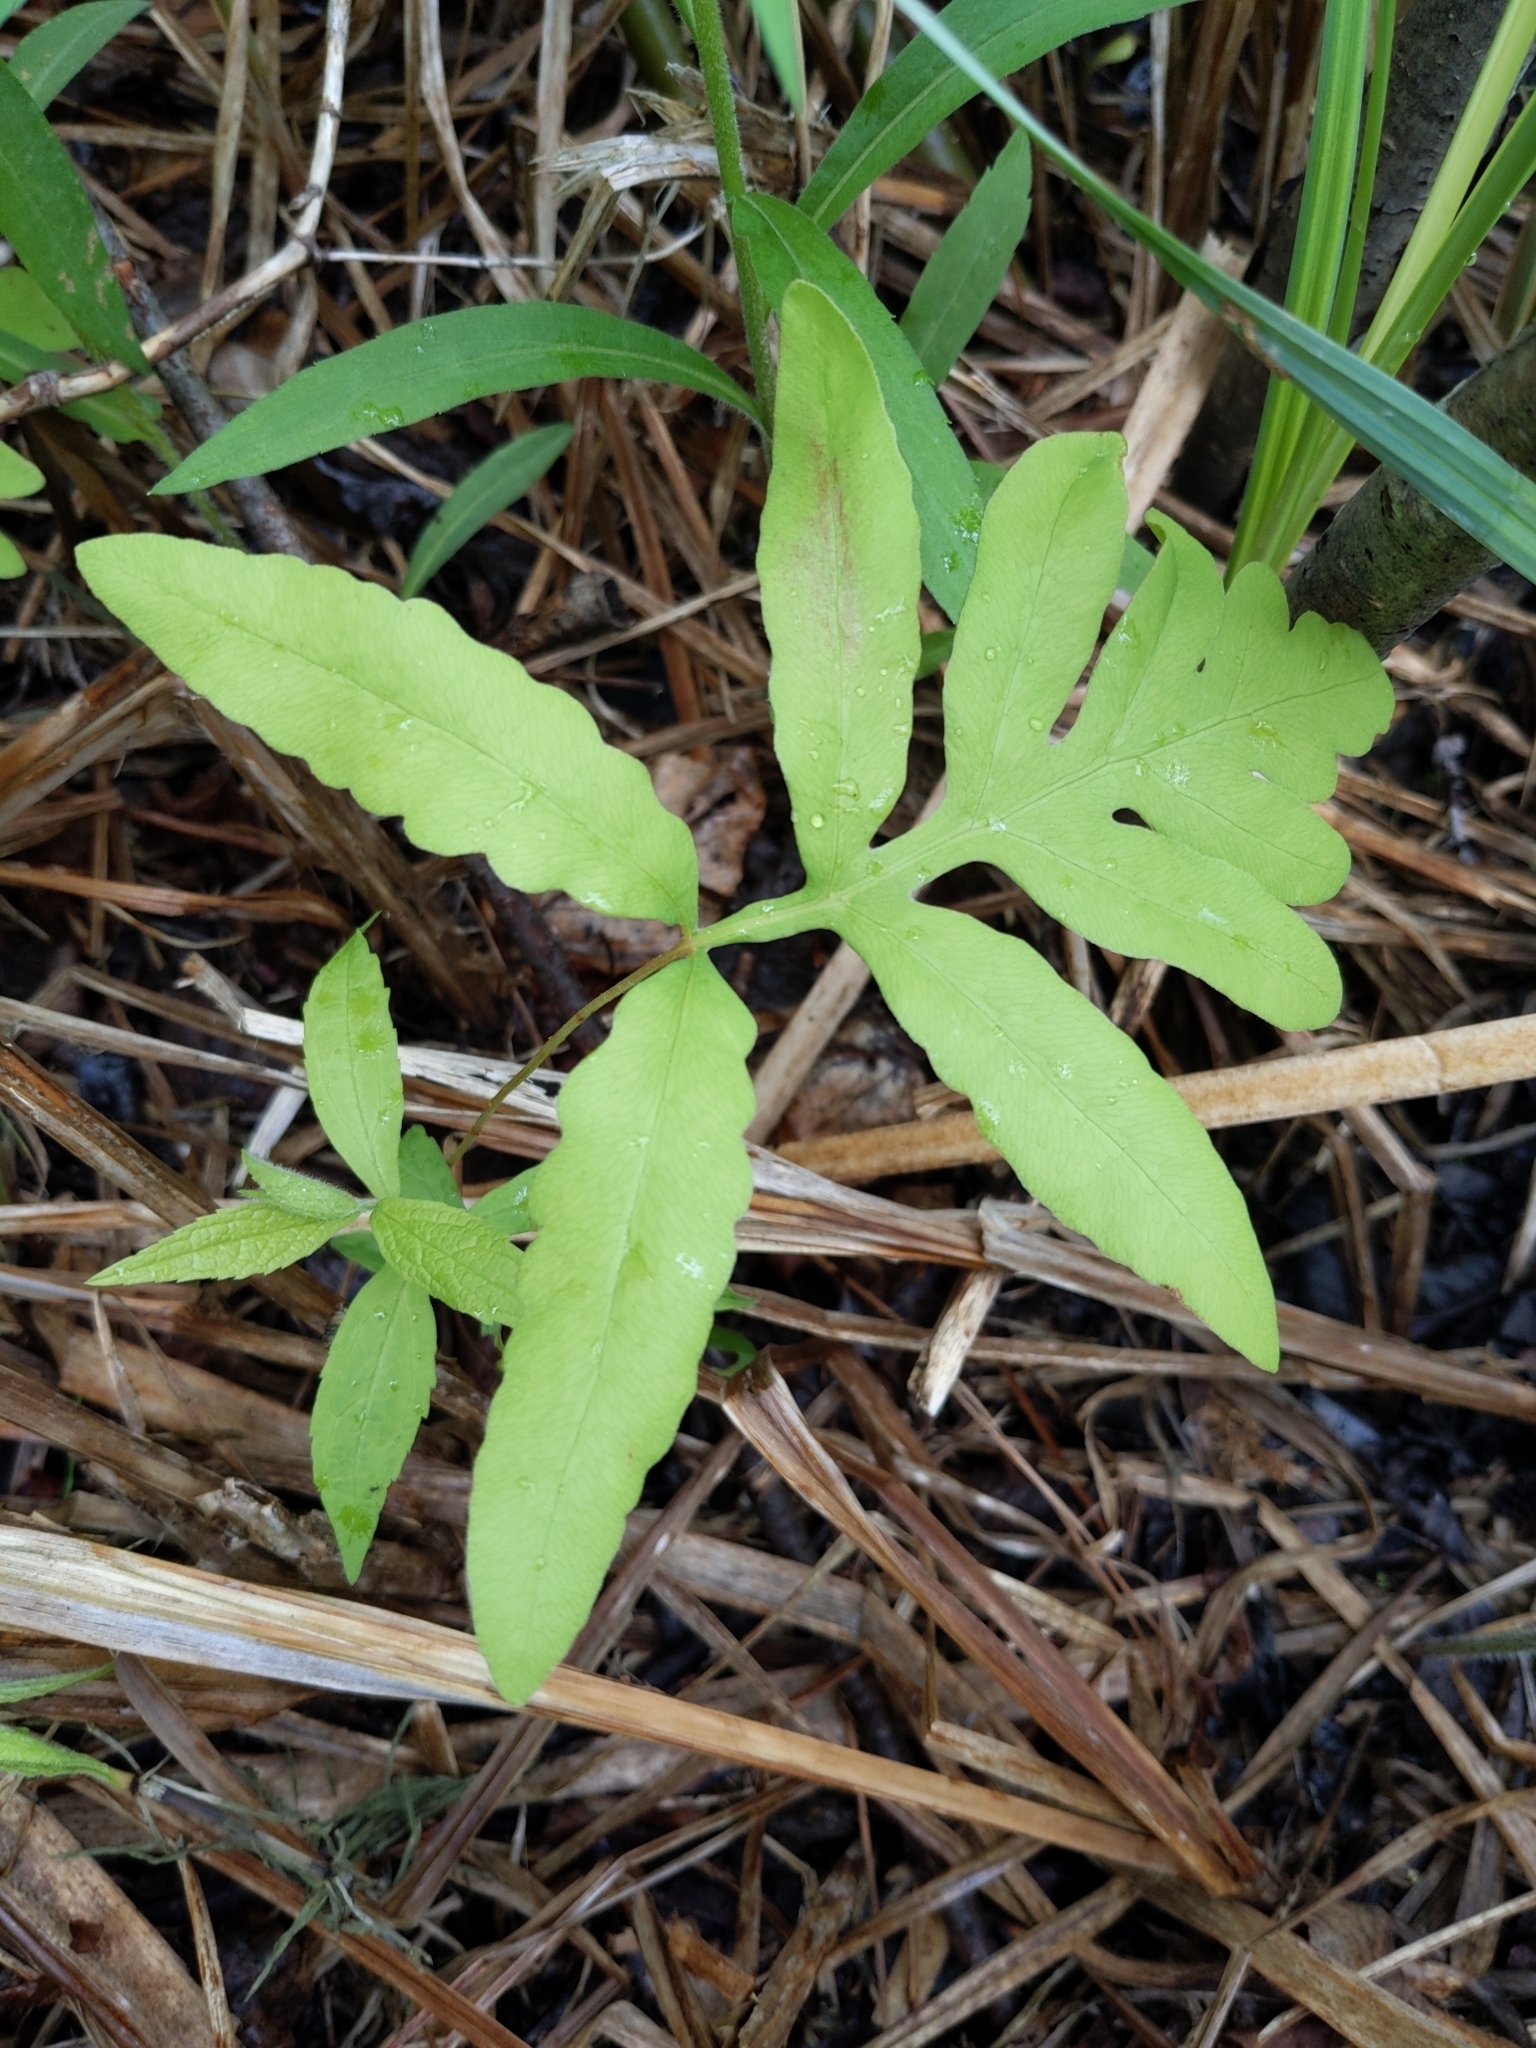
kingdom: Plantae
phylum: Tracheophyta
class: Polypodiopsida
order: Polypodiales
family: Onocleaceae
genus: Onoclea
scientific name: Onoclea sensibilis
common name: Sensitive fern
